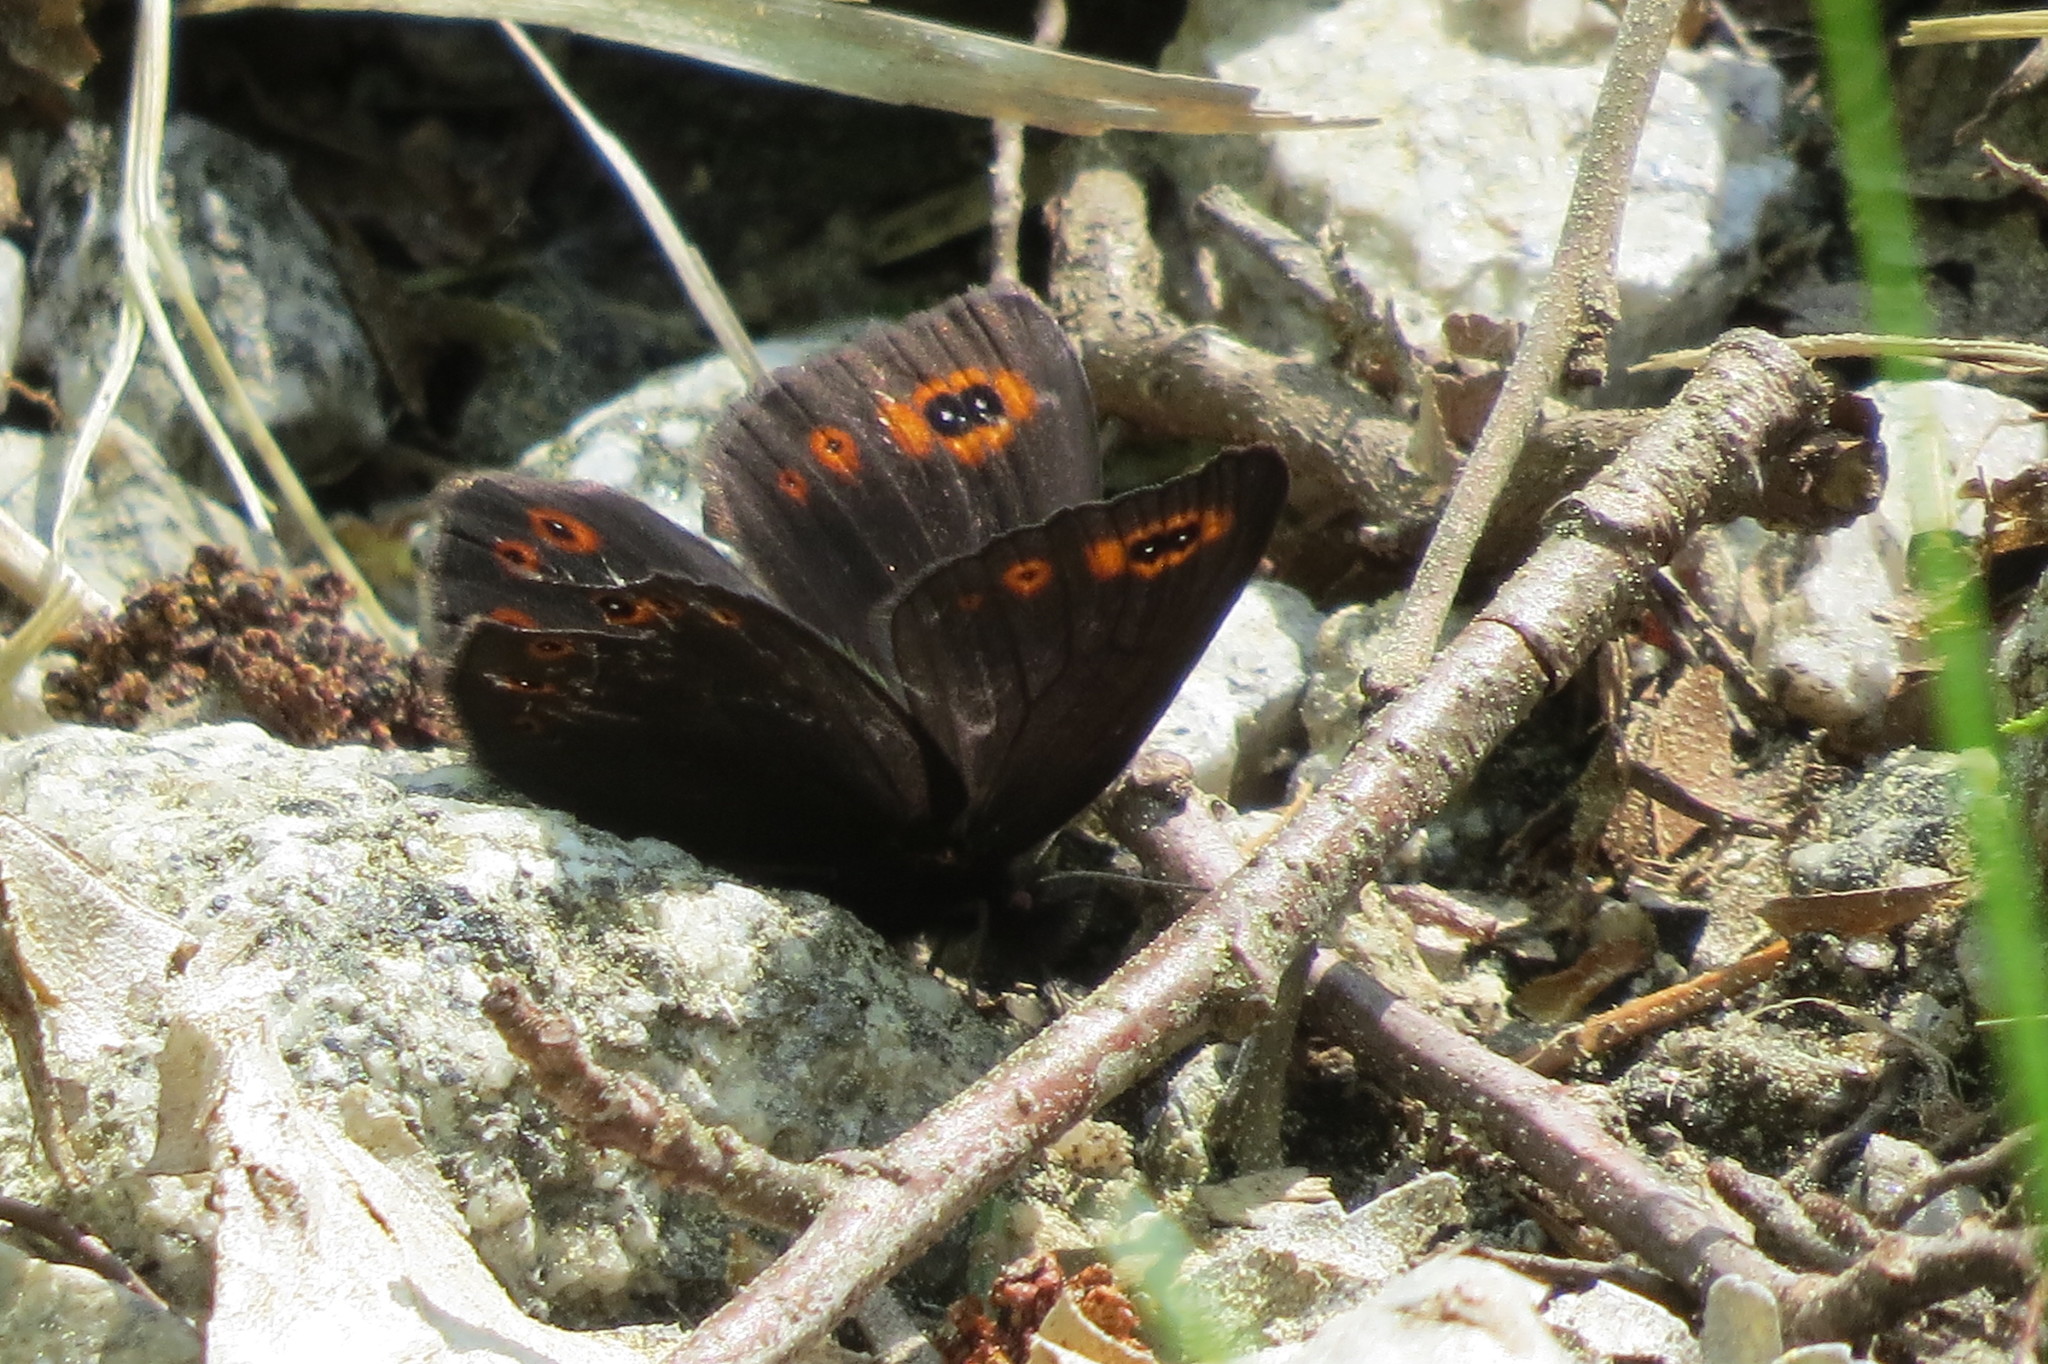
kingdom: Animalia
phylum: Arthropoda
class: Insecta
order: Lepidoptera
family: Nymphalidae
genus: Erebia
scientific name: Erebia medusa
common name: Woodland ringlet
